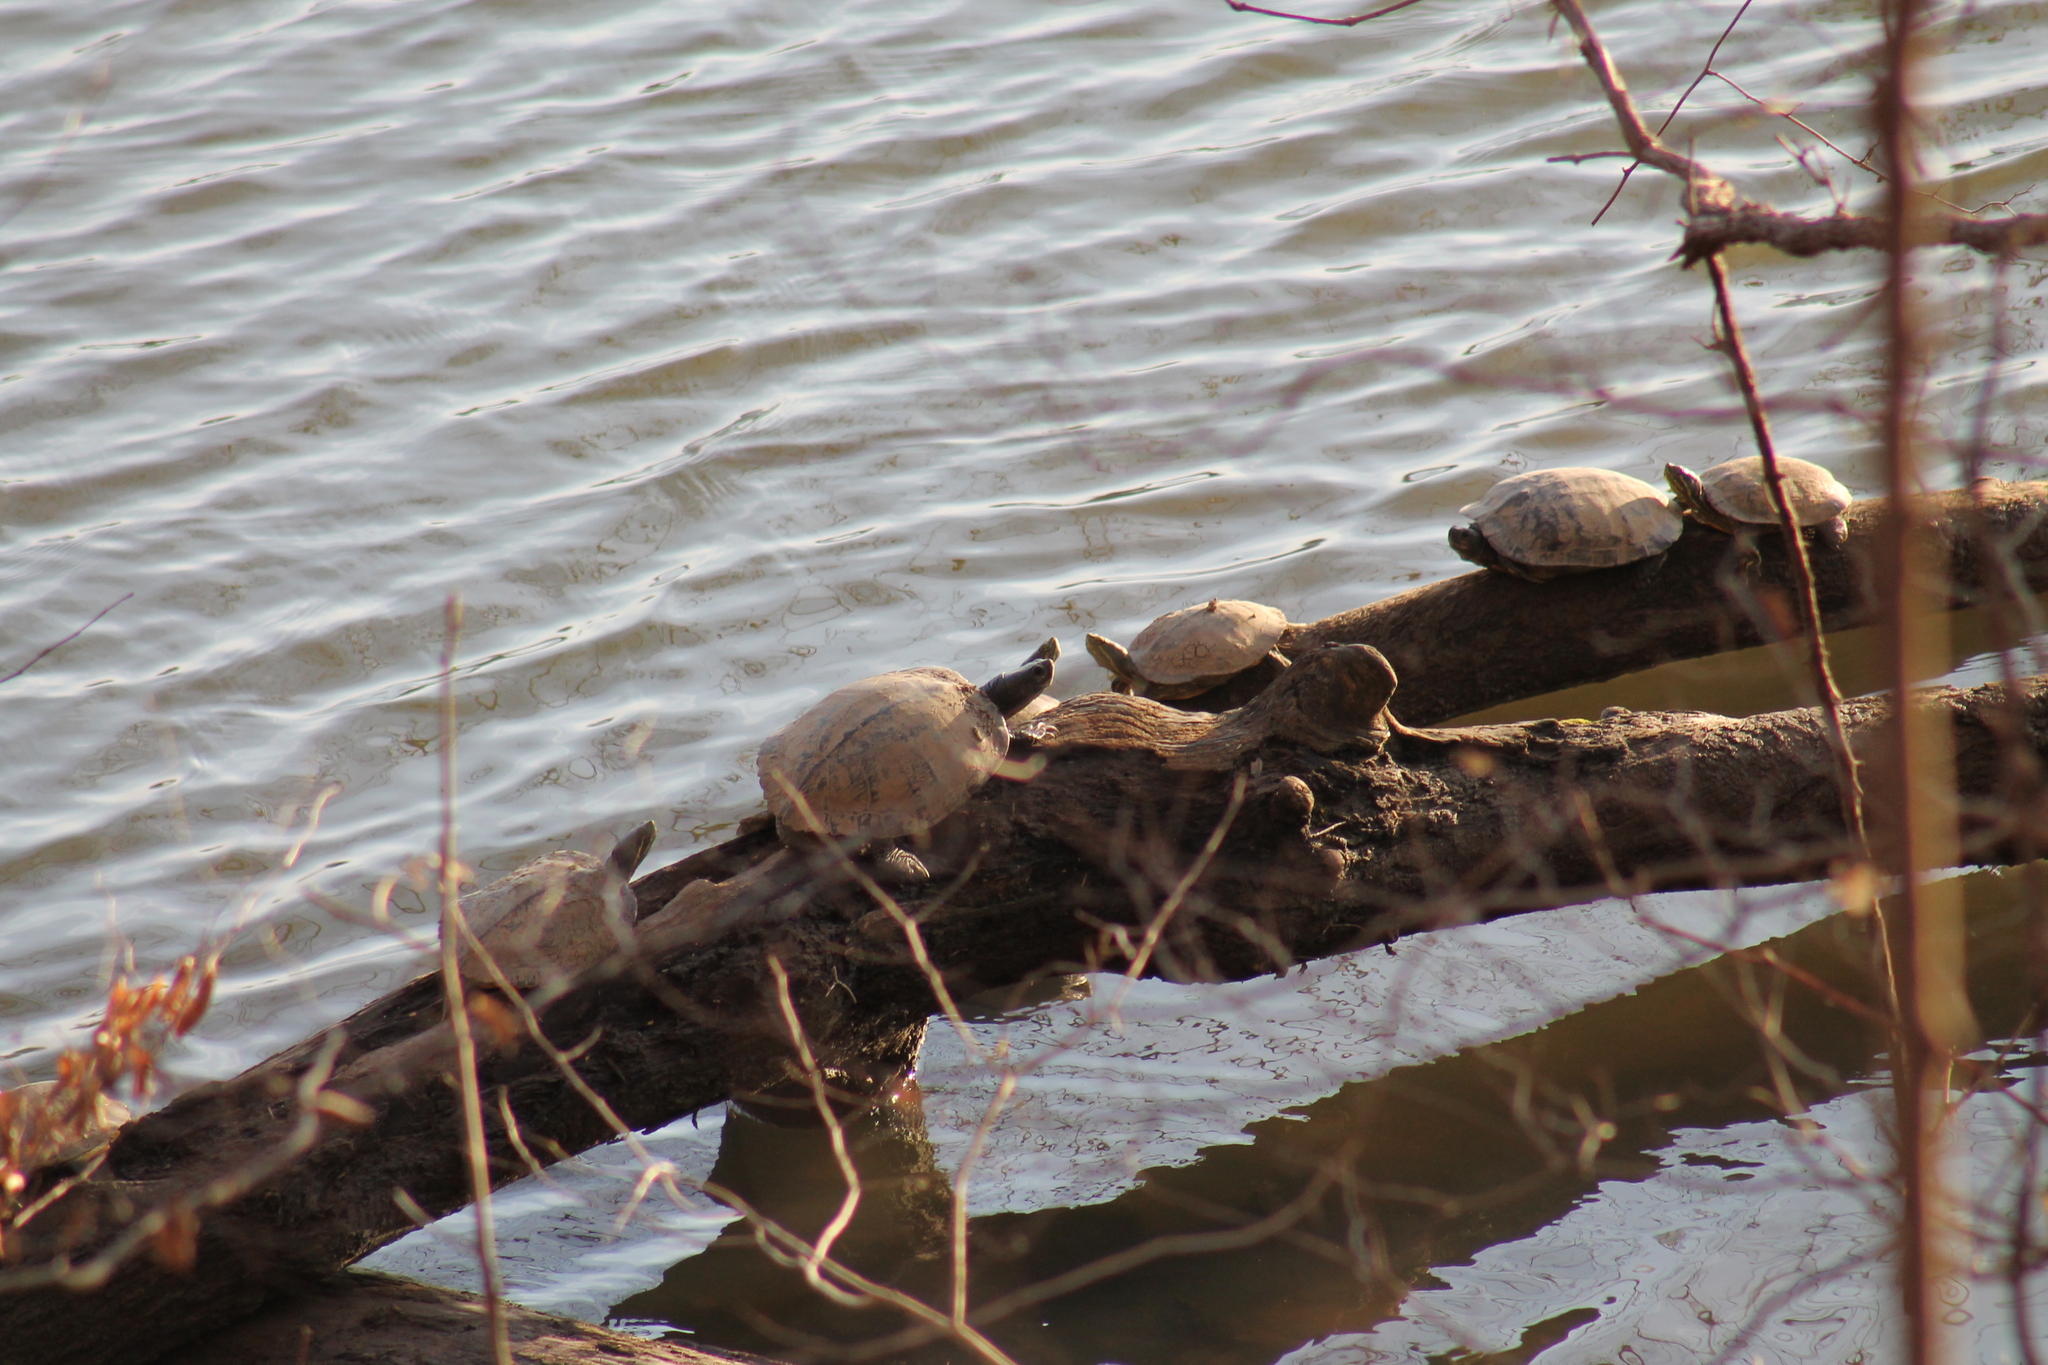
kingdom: Animalia
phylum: Chordata
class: Testudines
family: Emydidae
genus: Trachemys
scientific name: Trachemys scripta
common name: Slider
